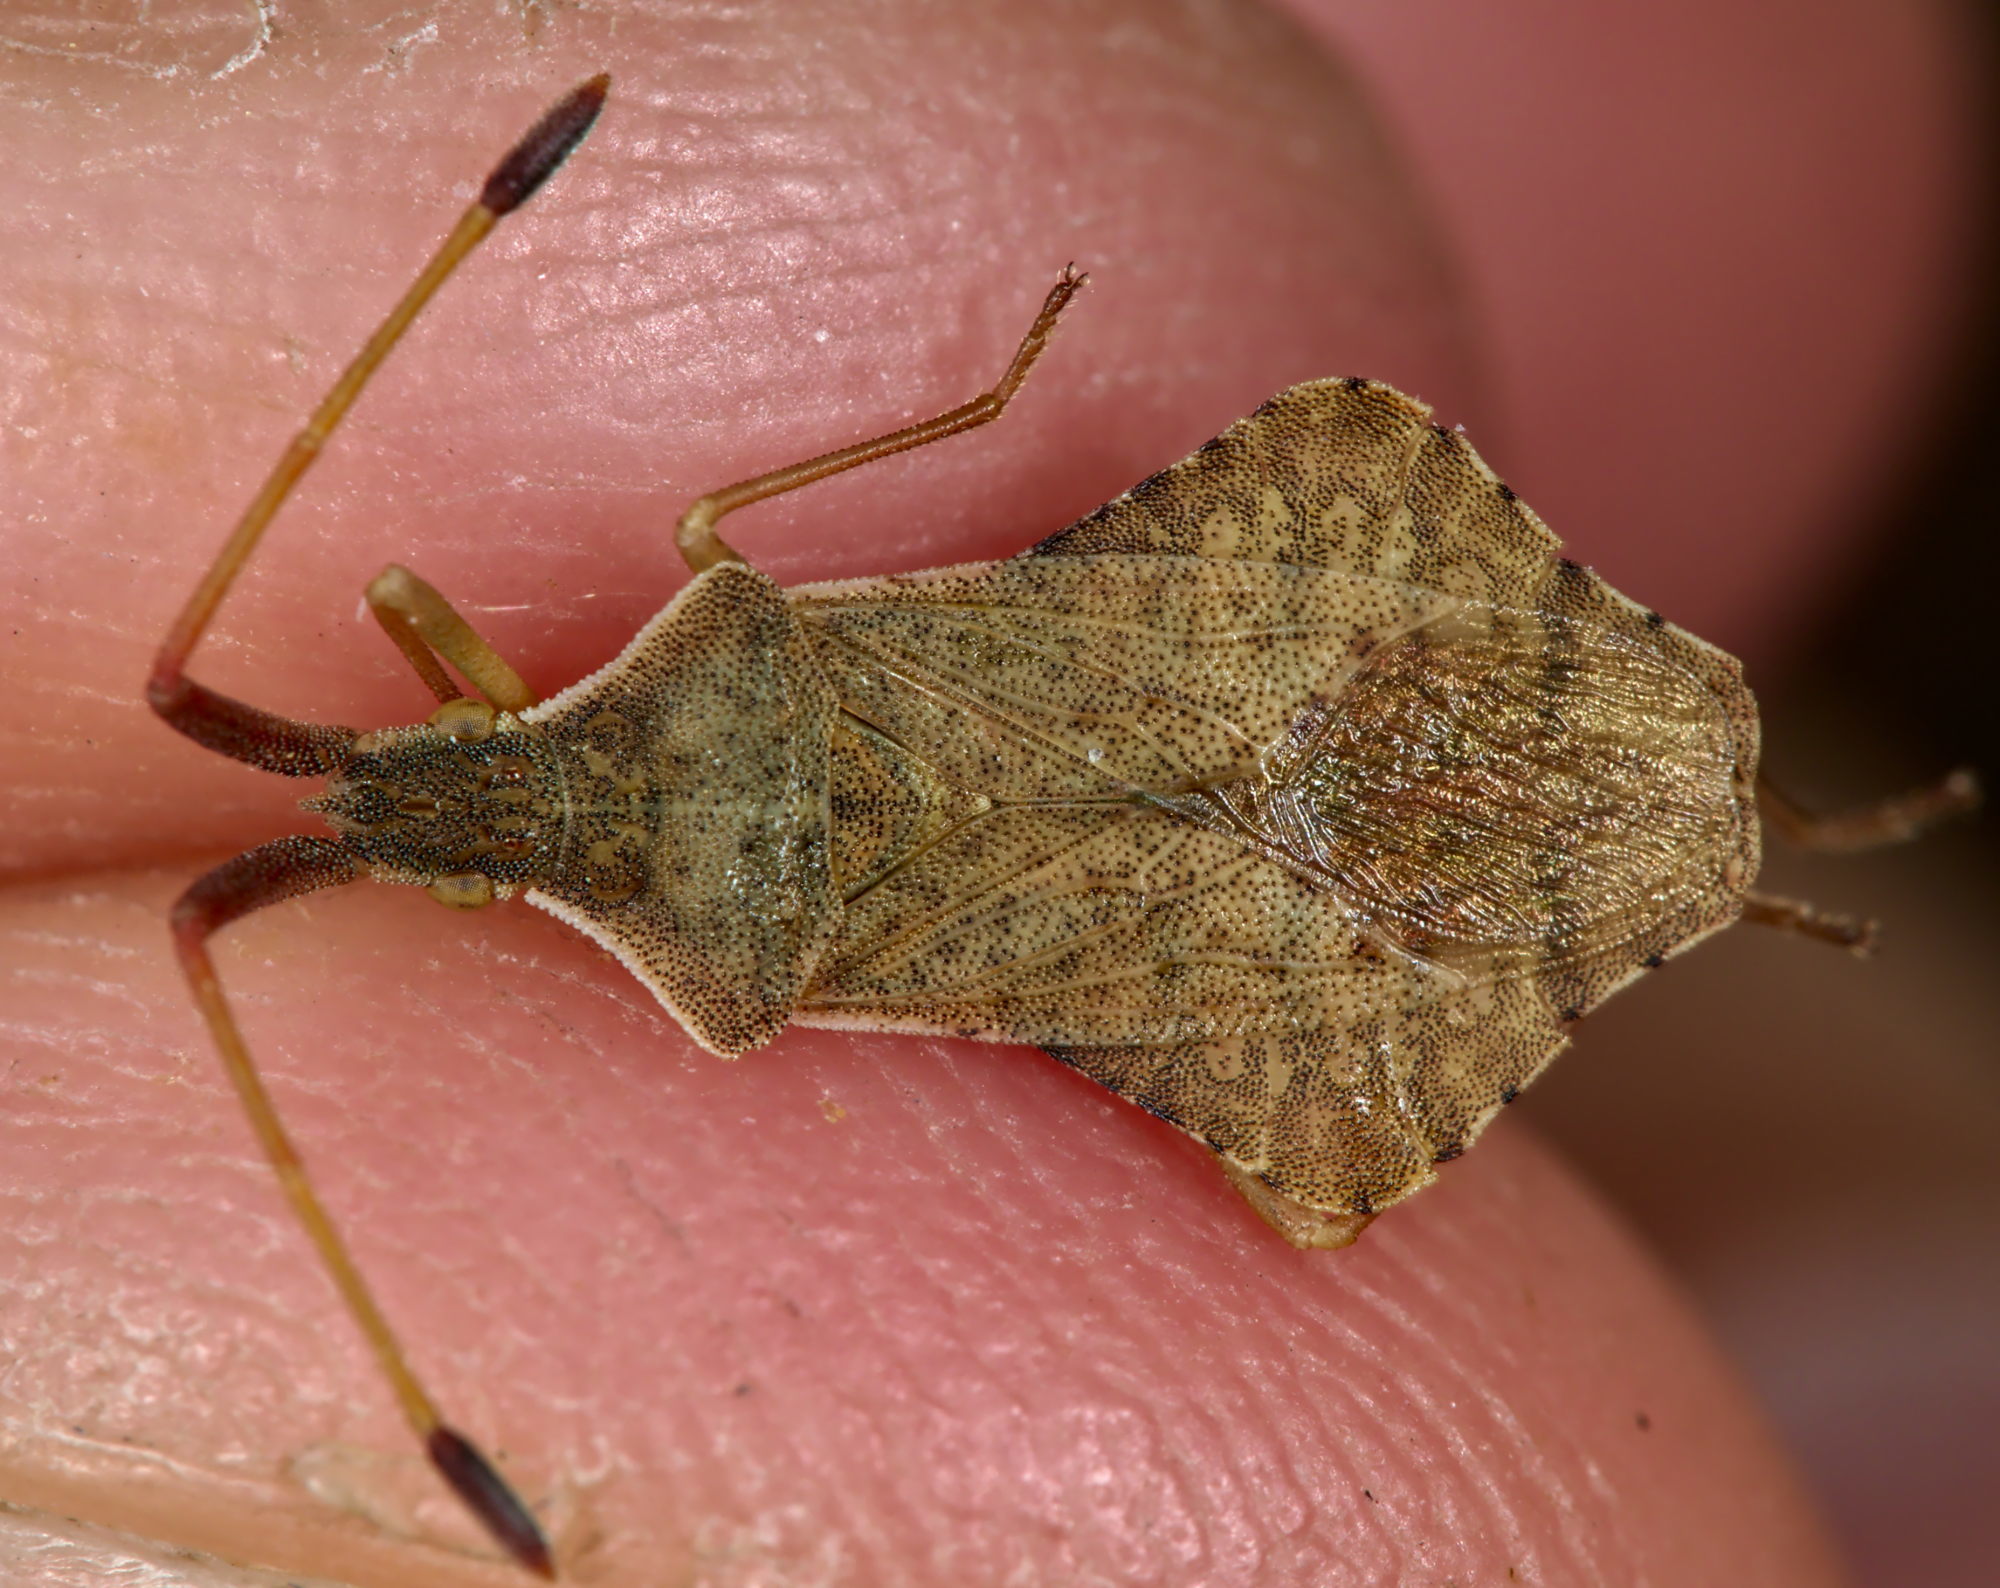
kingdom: Animalia
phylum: Arthropoda
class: Insecta
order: Hemiptera
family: Coreidae
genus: Syromastus
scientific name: Syromastus rhombeus
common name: Rhombic leatherbug
